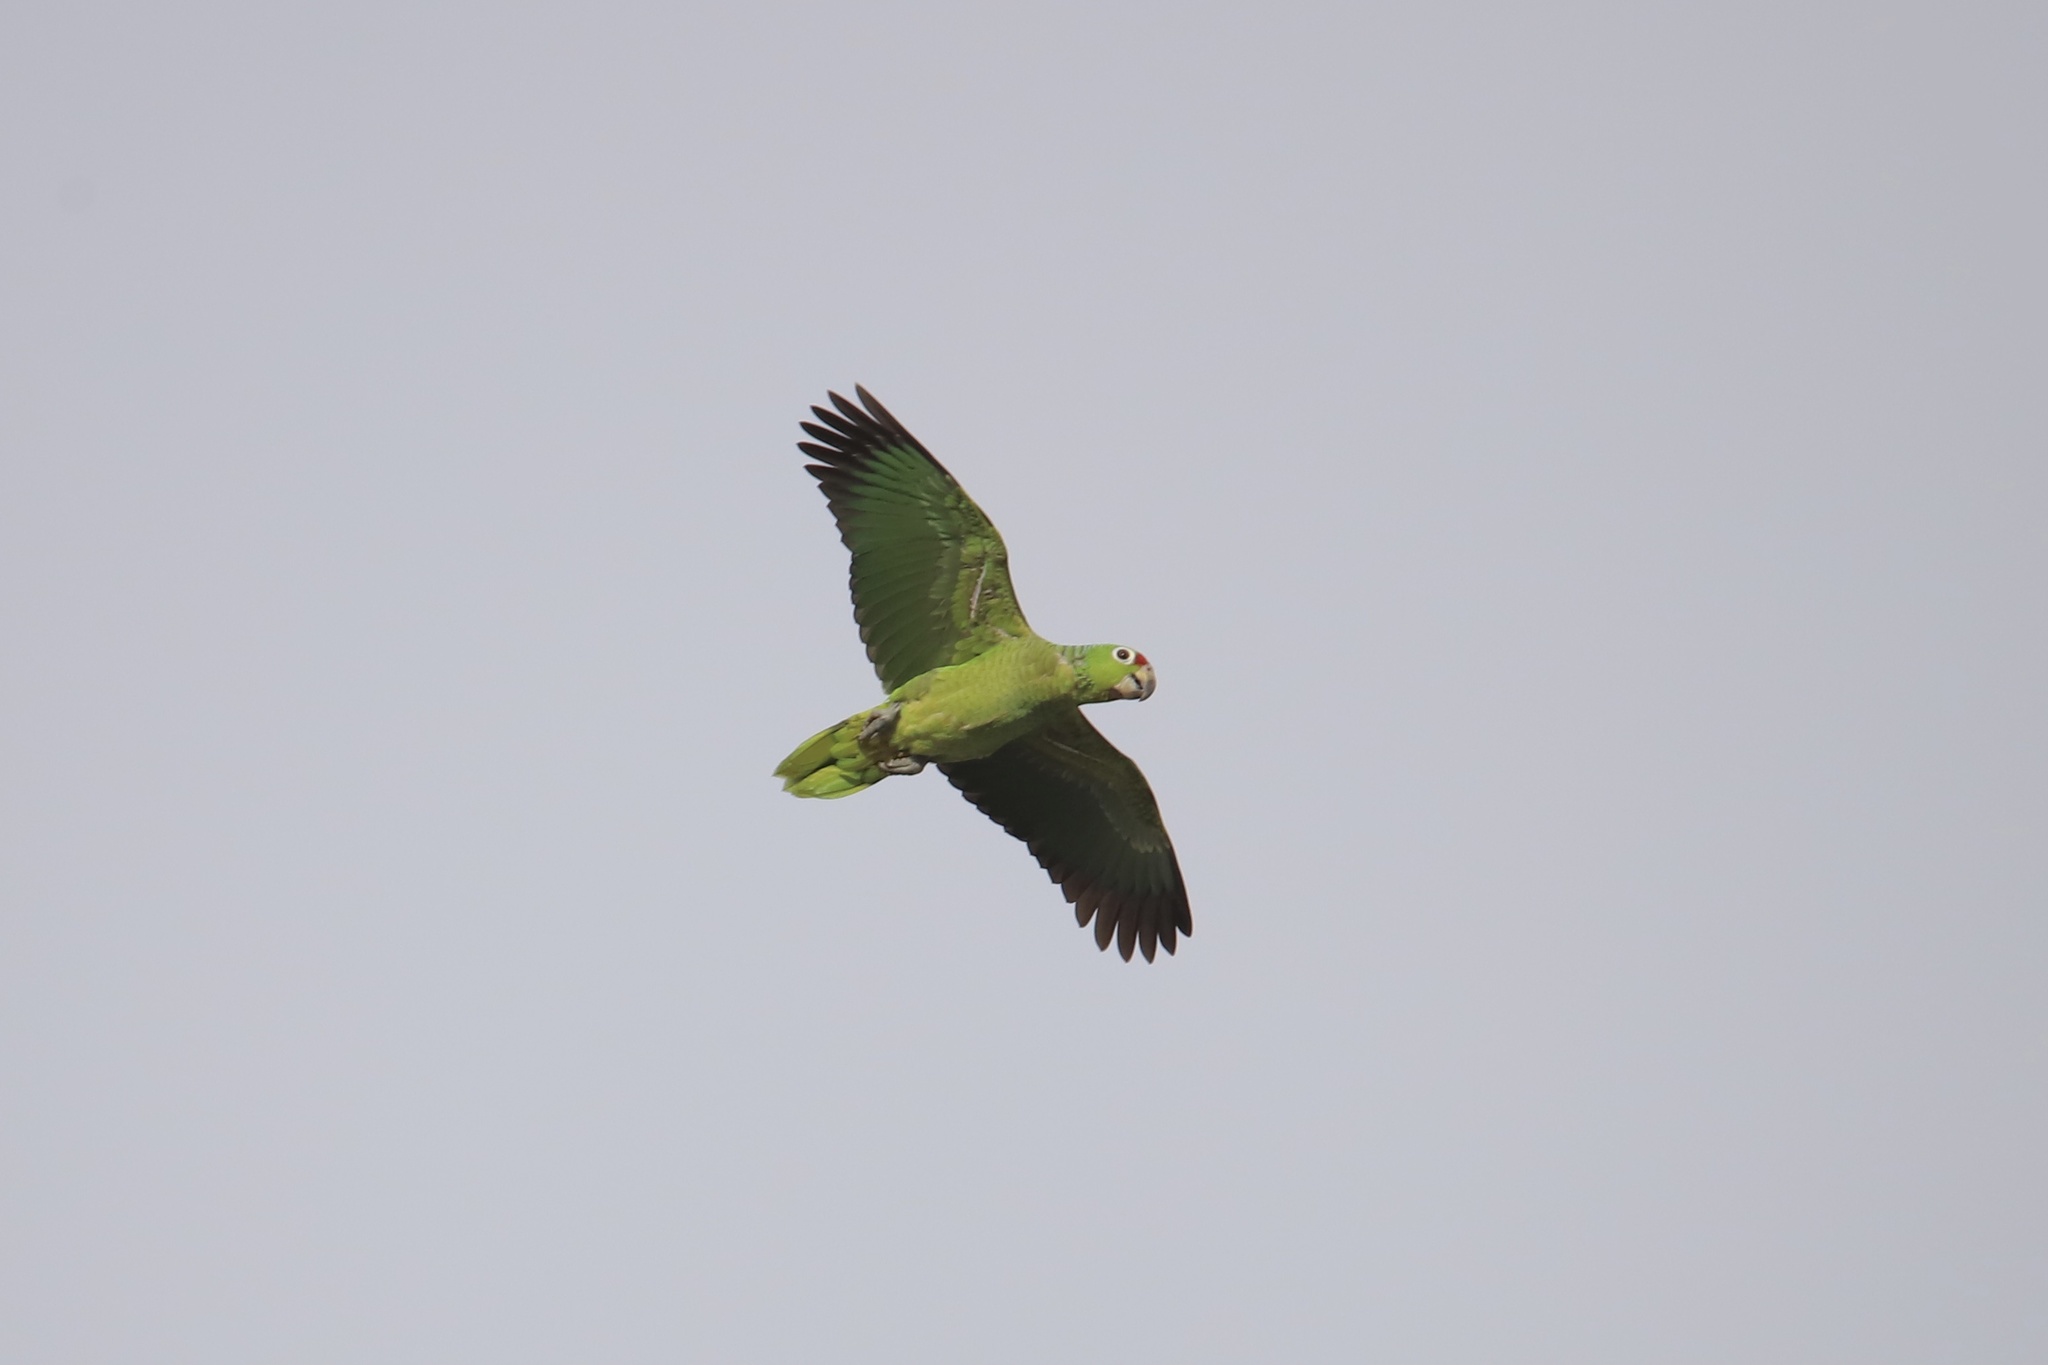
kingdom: Animalia
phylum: Chordata
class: Aves
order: Psittaciformes
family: Psittacidae
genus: Amazona
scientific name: Amazona autumnalis
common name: Red-lored amazon
